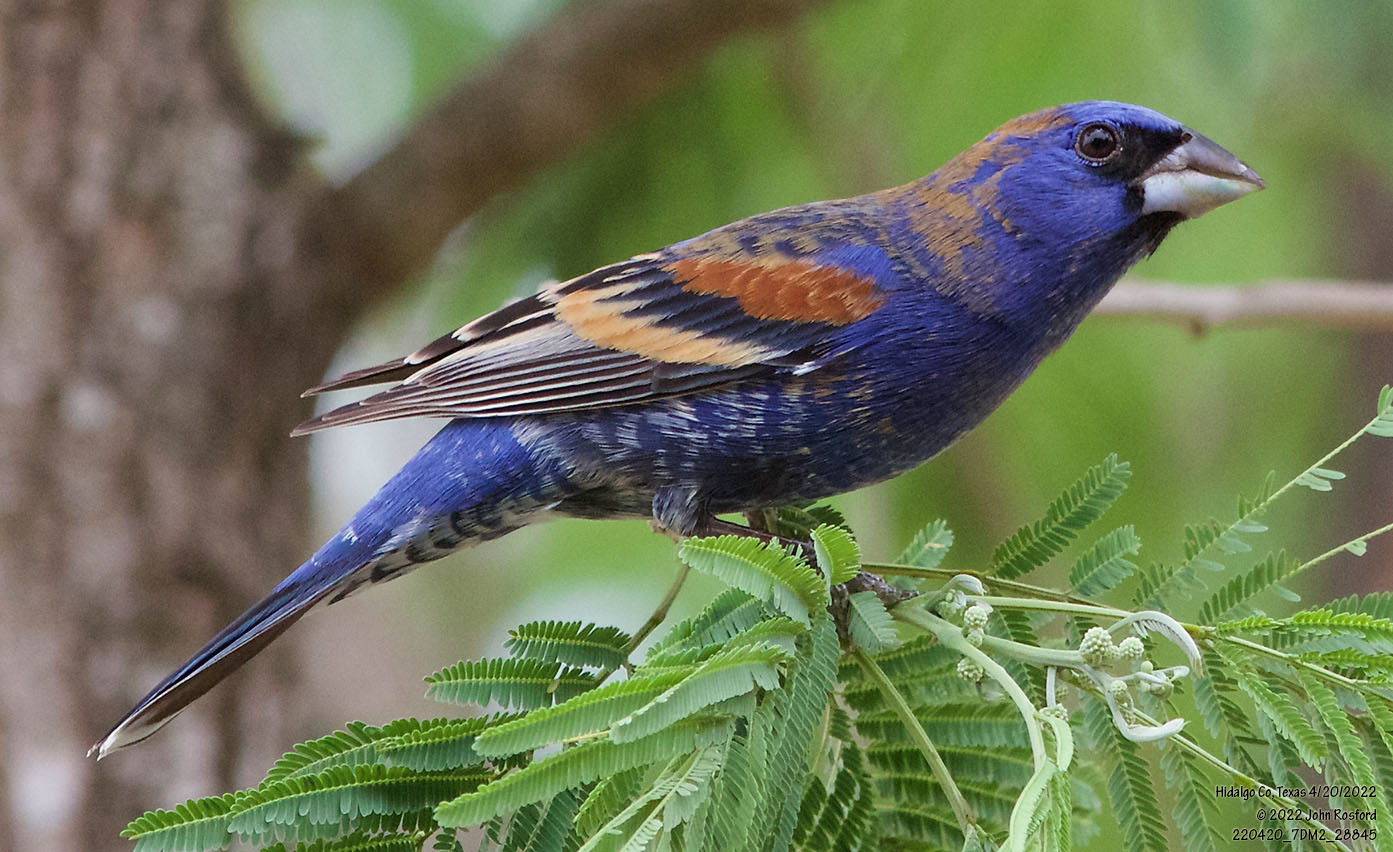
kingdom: Animalia
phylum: Chordata
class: Aves
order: Passeriformes
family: Cardinalidae
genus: Passerina
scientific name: Passerina caerulea
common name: Blue grosbeak
